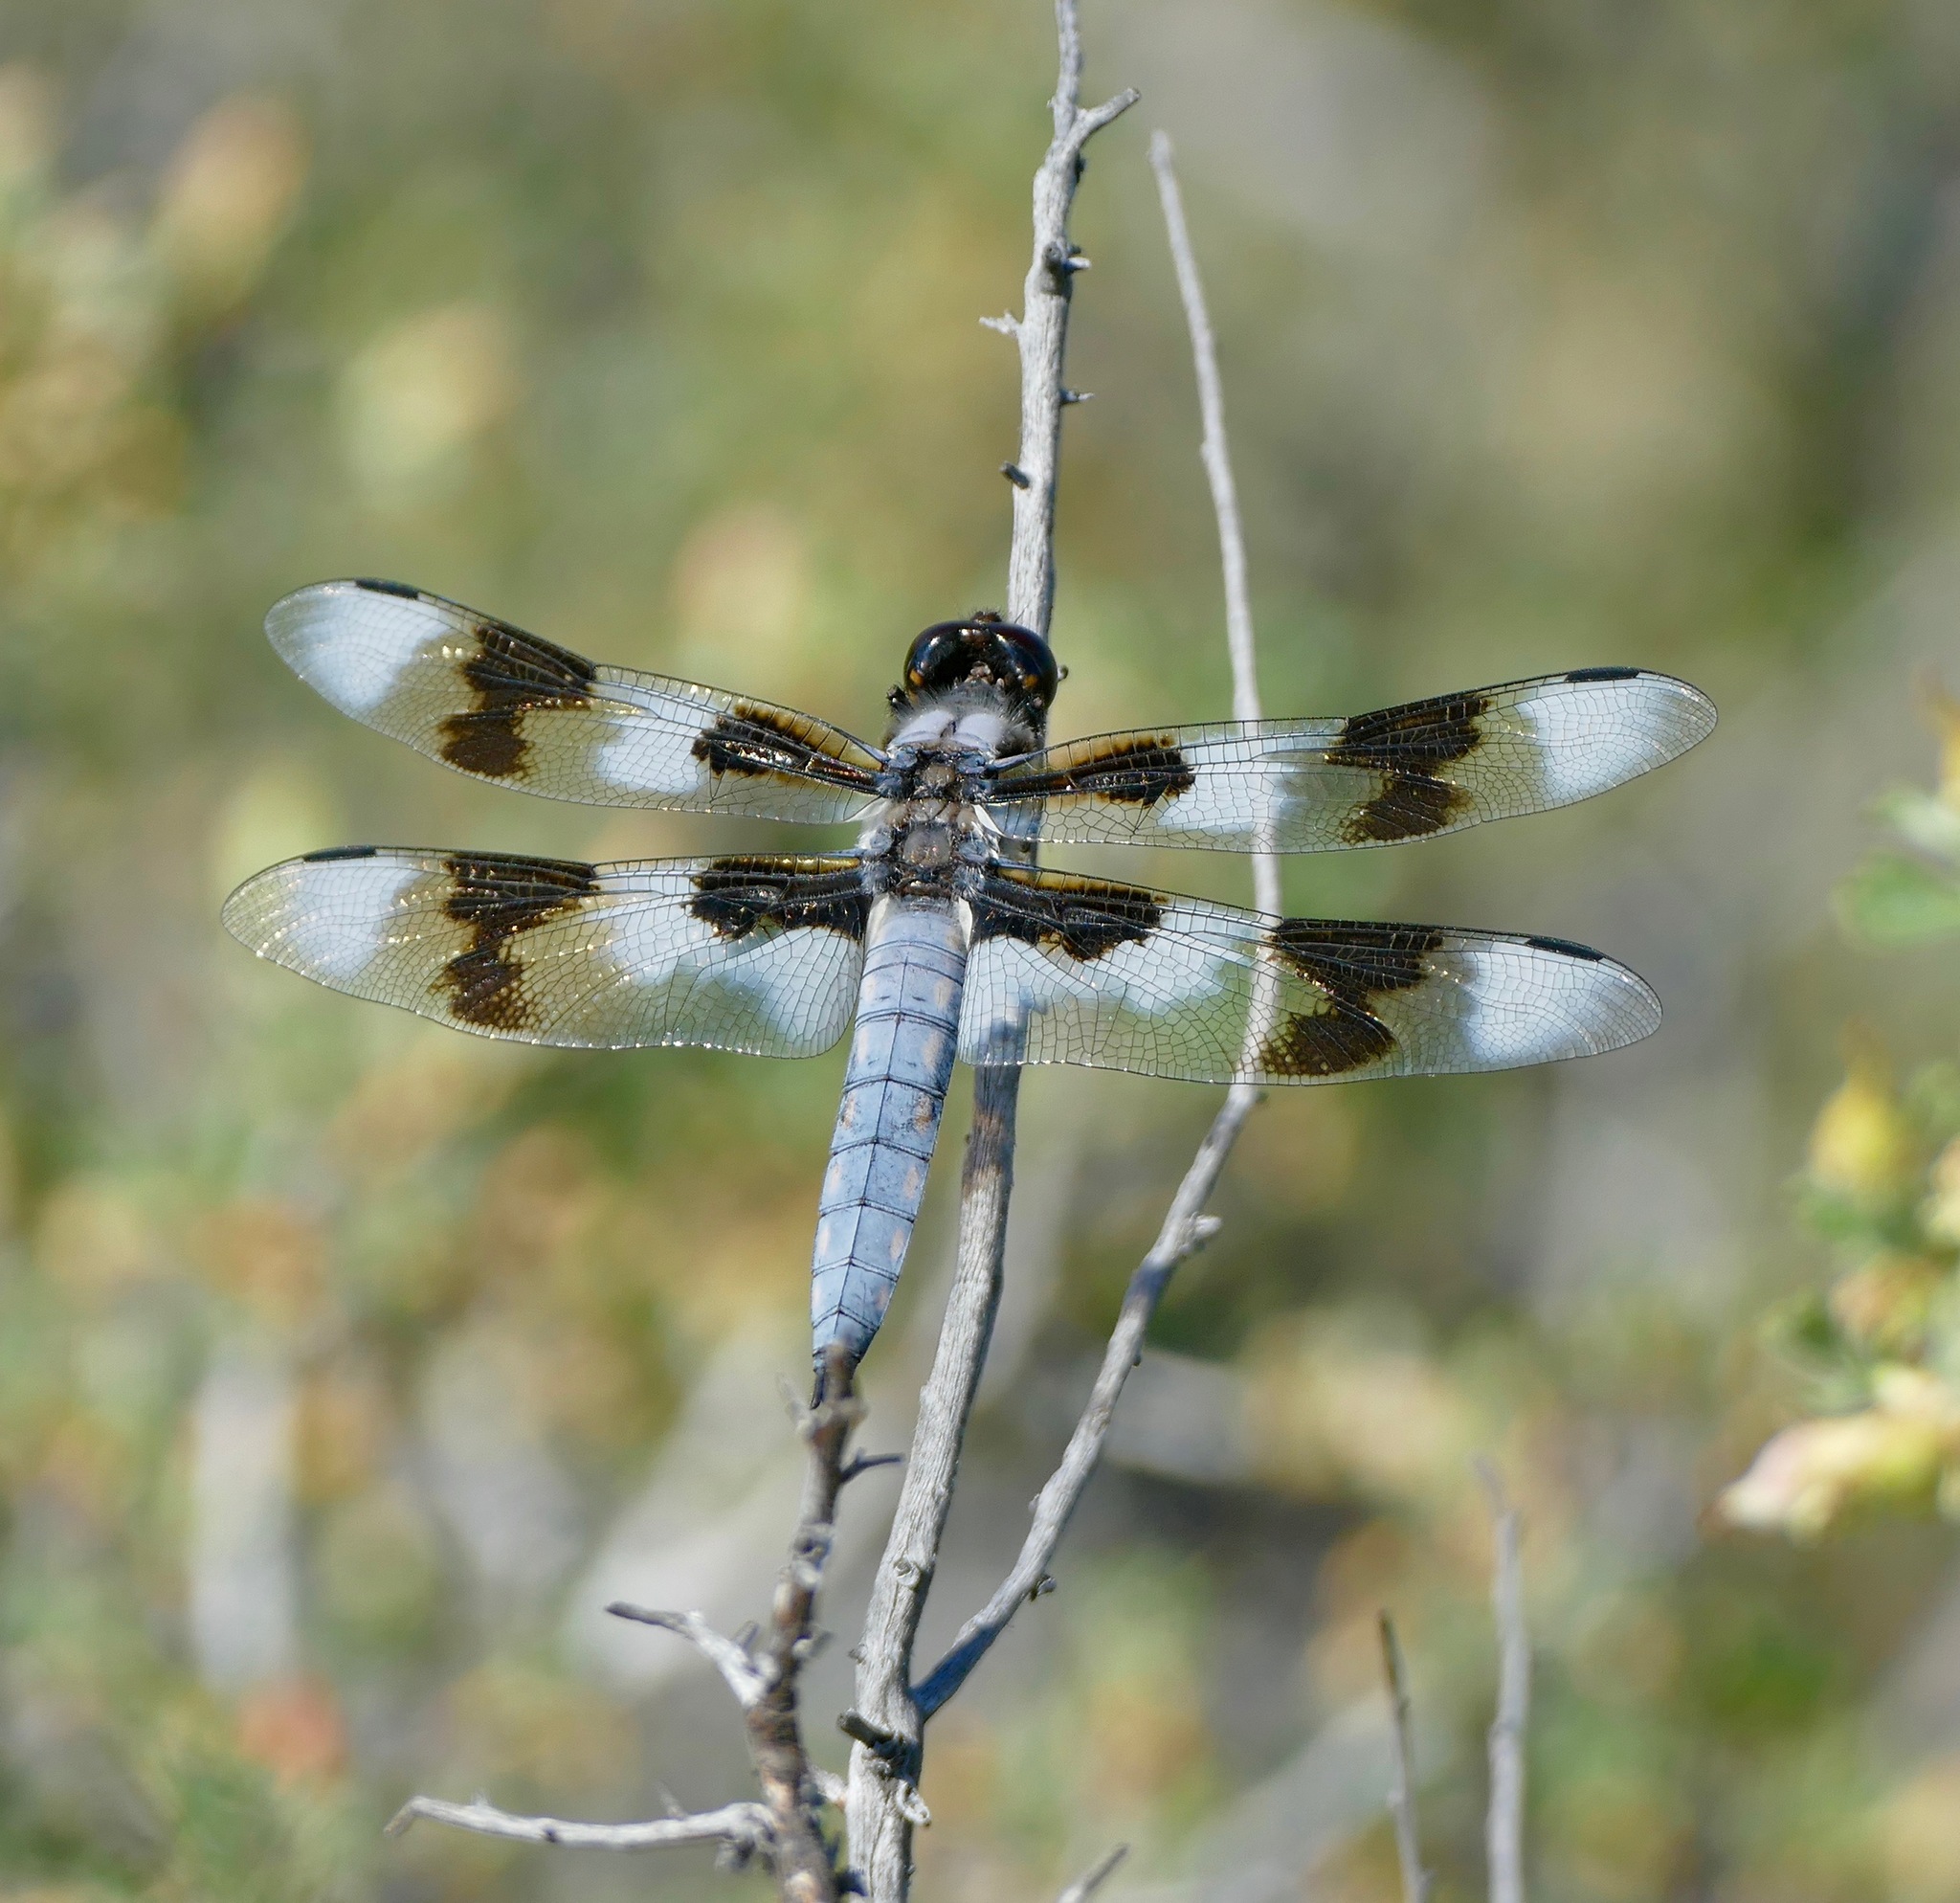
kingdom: Animalia
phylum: Arthropoda
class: Insecta
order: Odonata
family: Libellulidae
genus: Libellula
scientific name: Libellula forensis
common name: Eight-spotted skimmer
